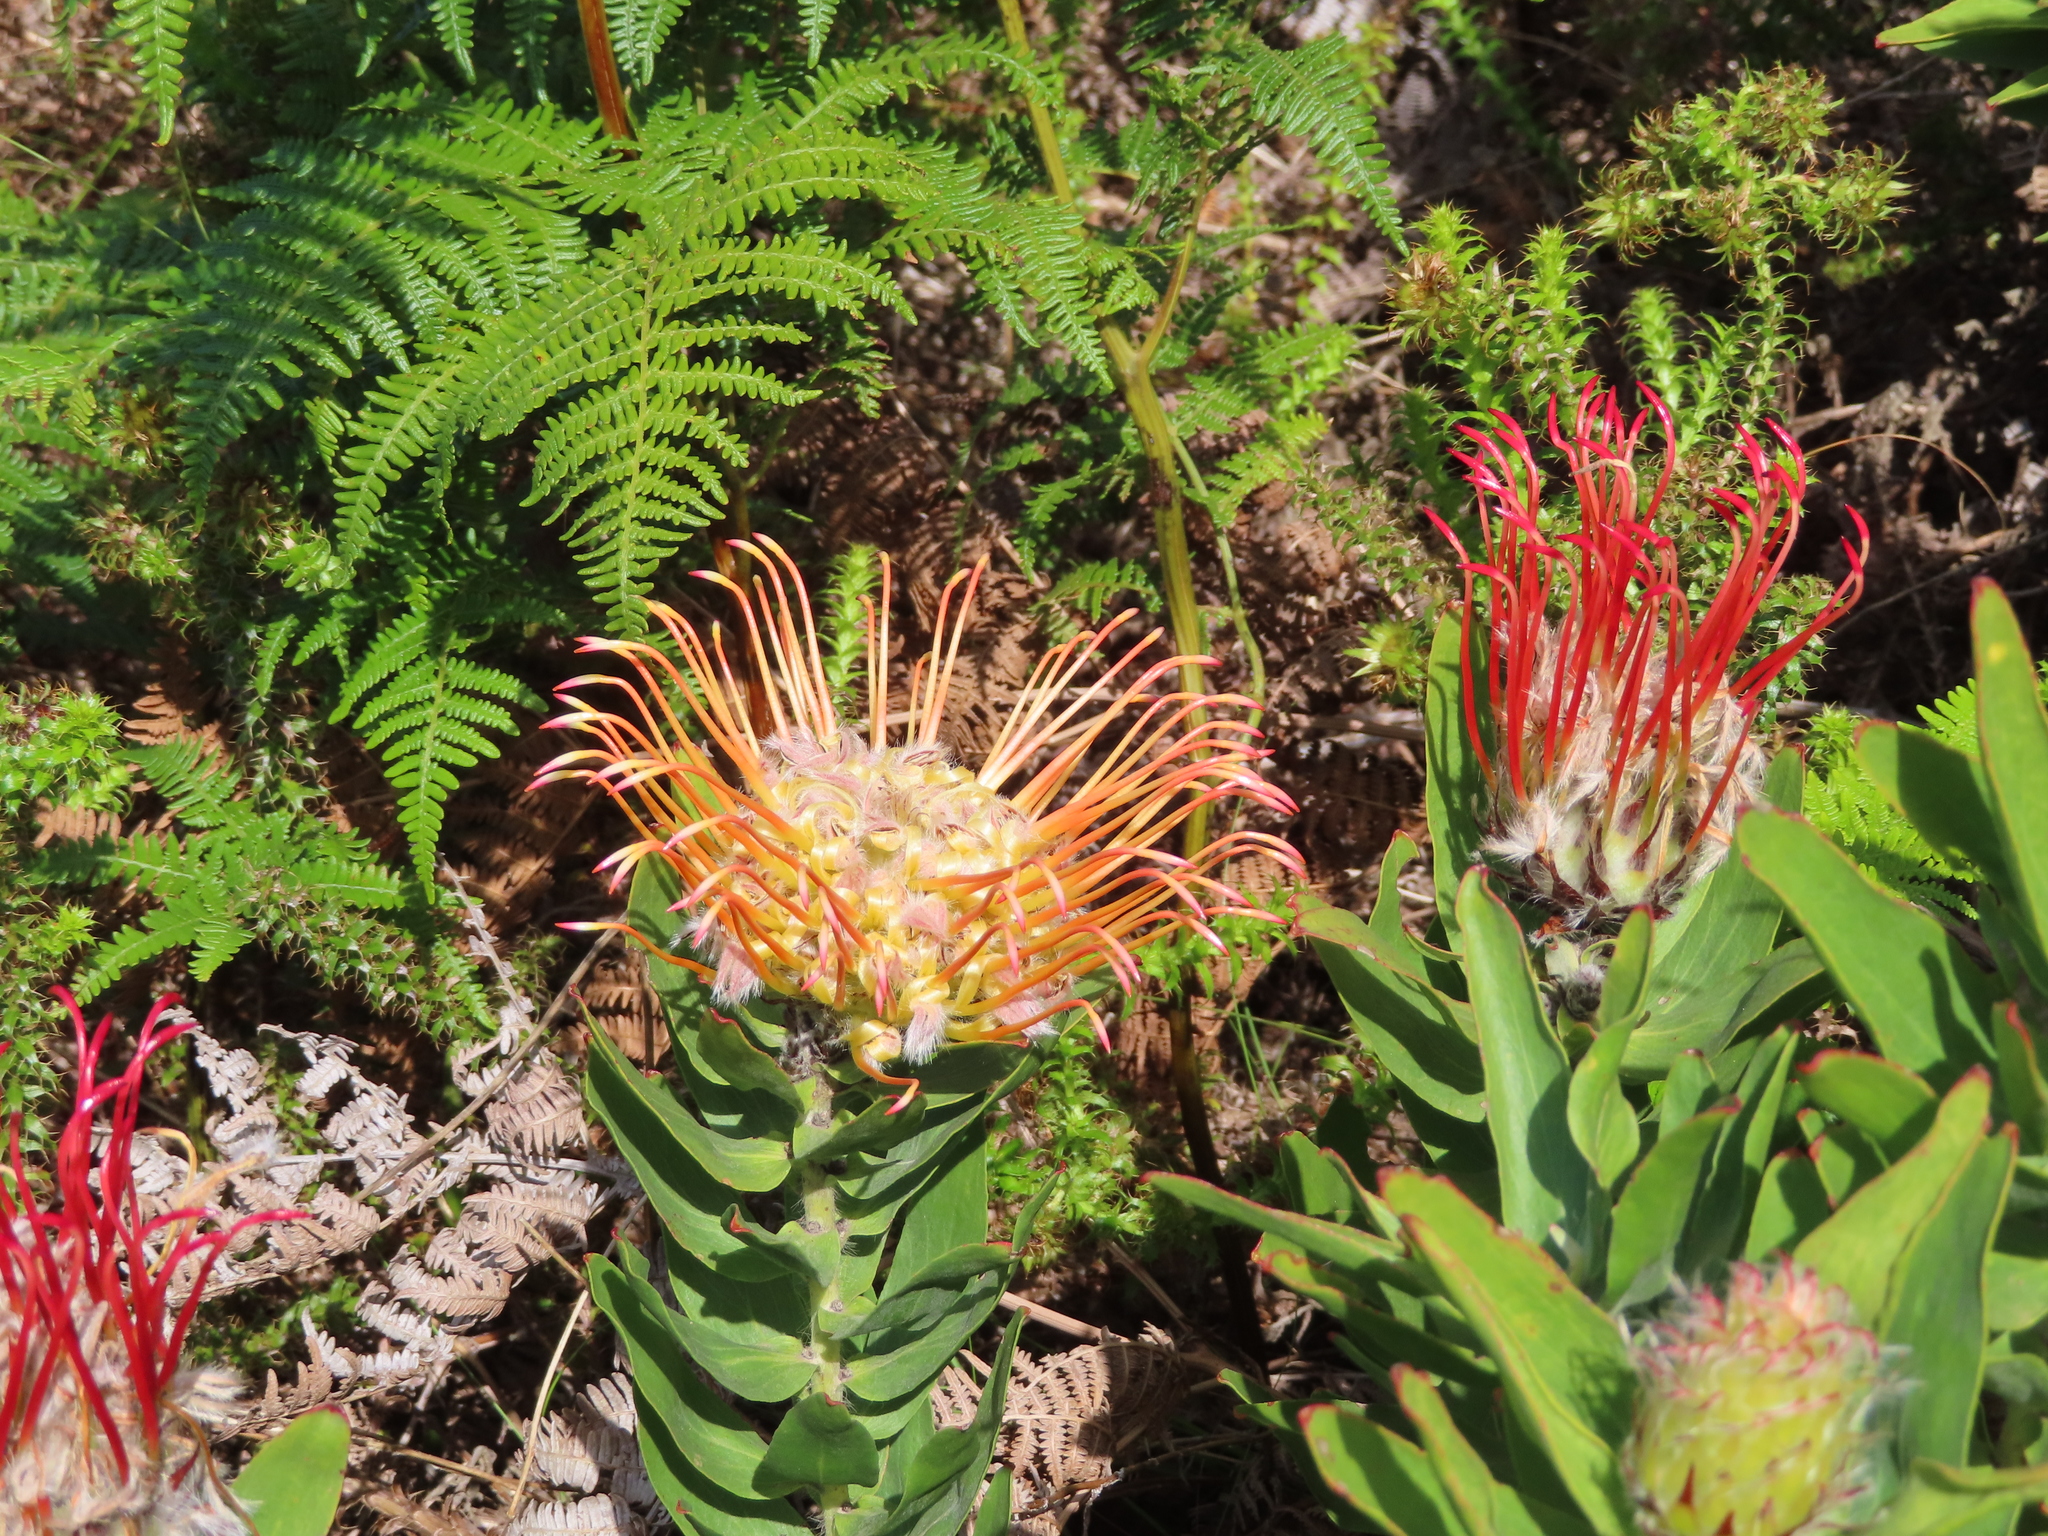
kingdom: Plantae
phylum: Tracheophyta
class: Magnoliopsida
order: Proteales
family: Proteaceae
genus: Leucospermum
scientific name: Leucospermum gueinzii
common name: Kloof fountain pincushion
